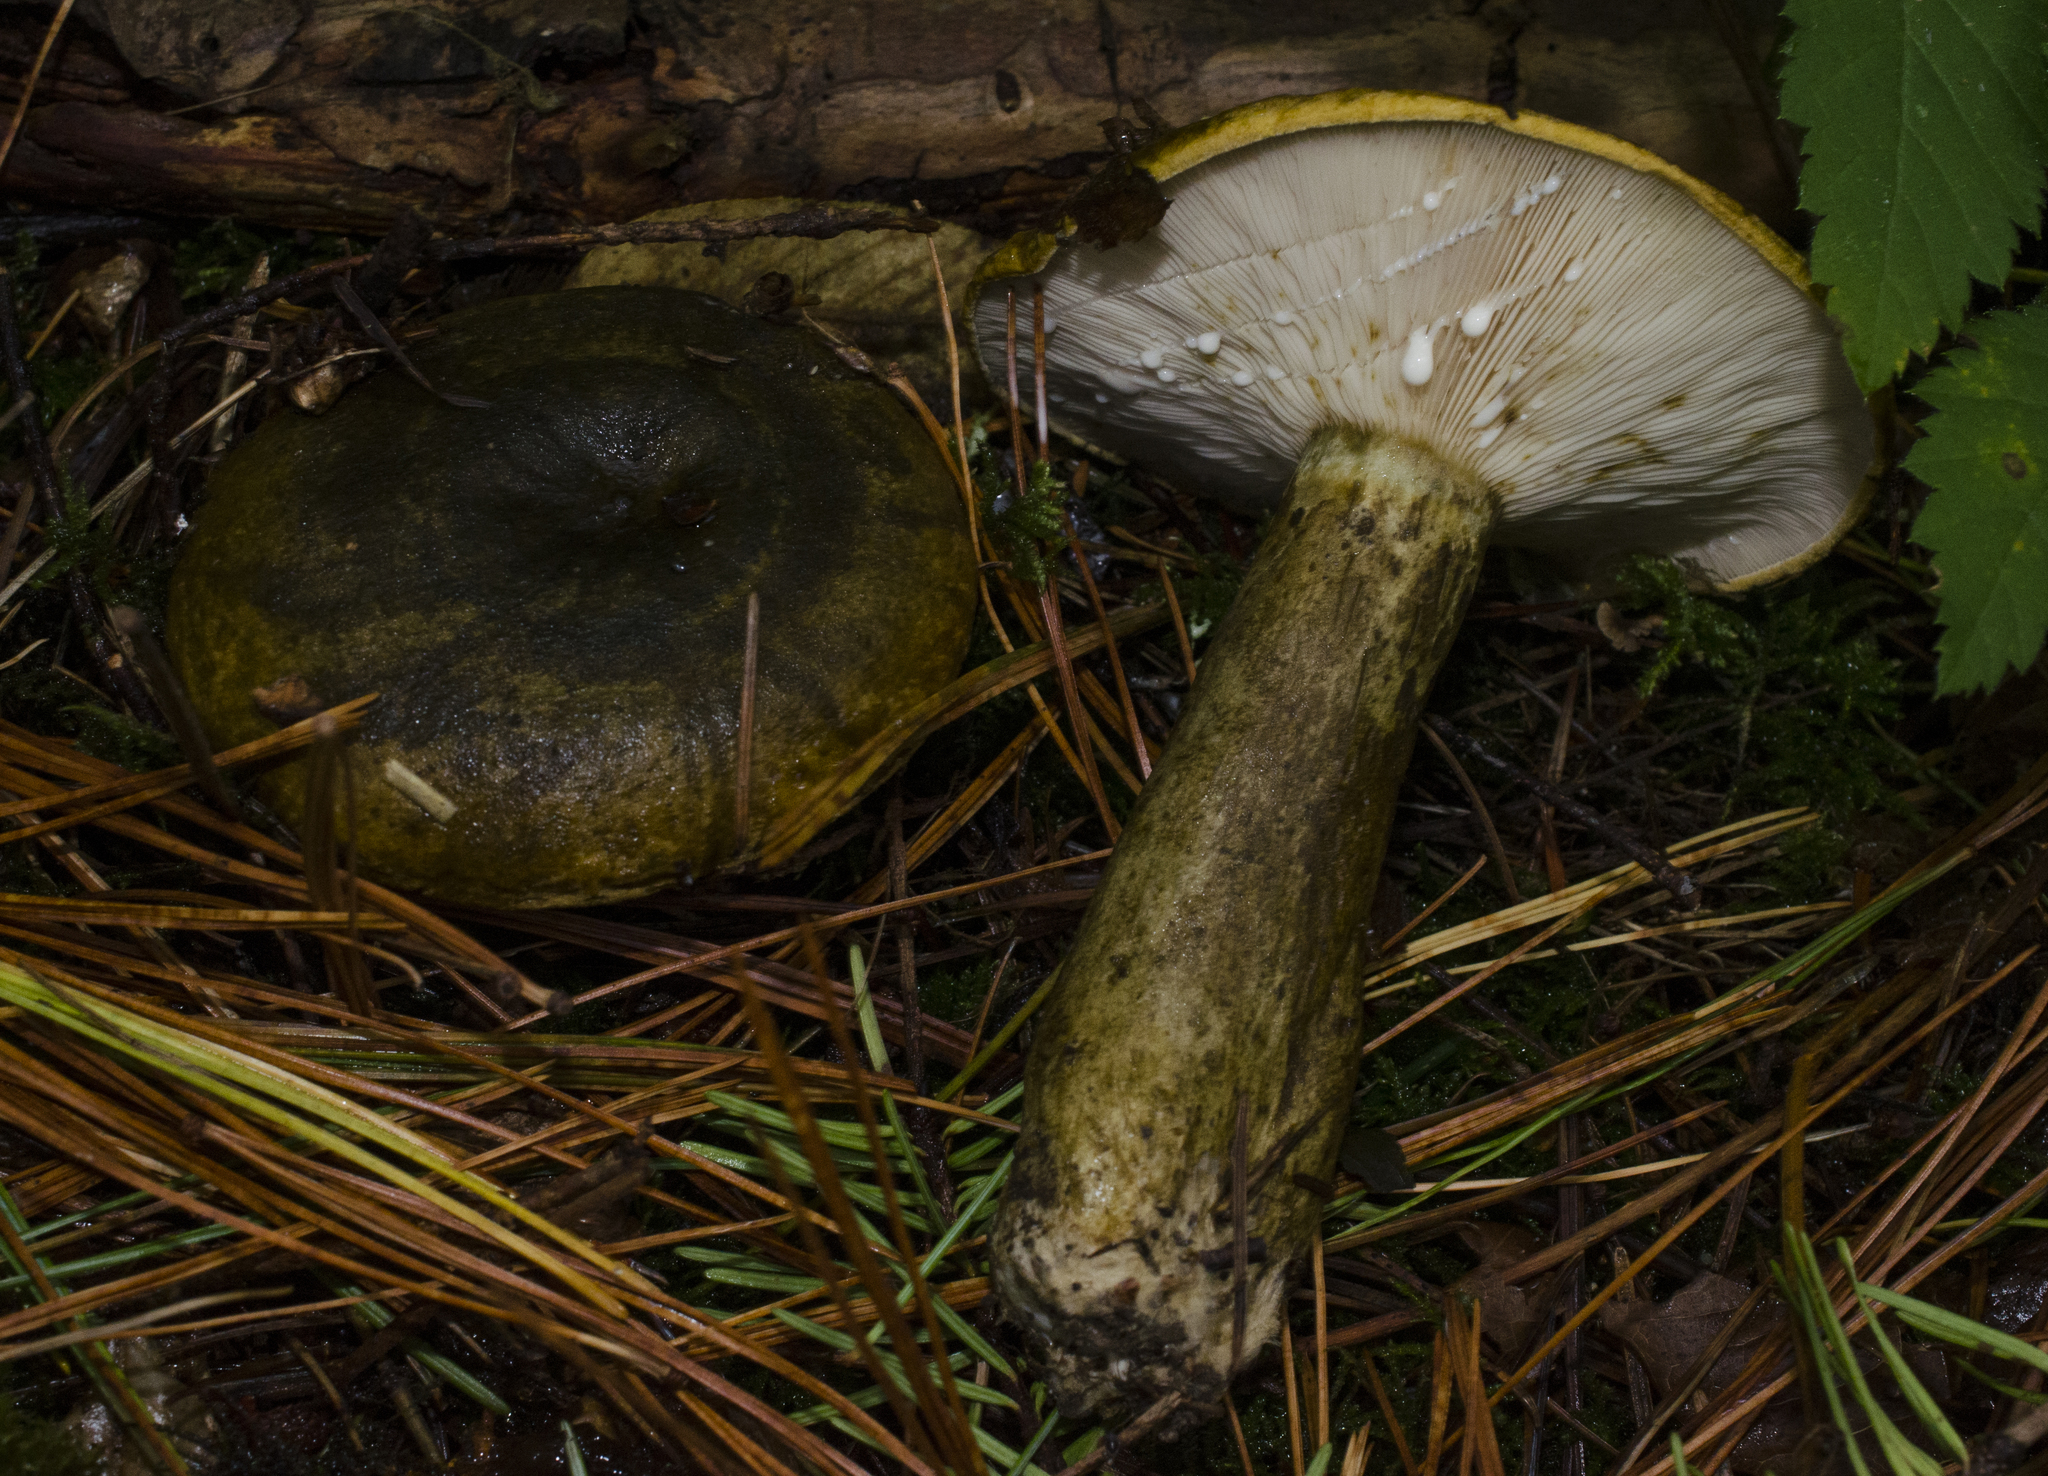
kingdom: Fungi
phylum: Basidiomycota
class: Agaricomycetes
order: Russulales
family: Russulaceae
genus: Lactarius
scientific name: Lactarius turpis
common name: Ugly milk-cap
